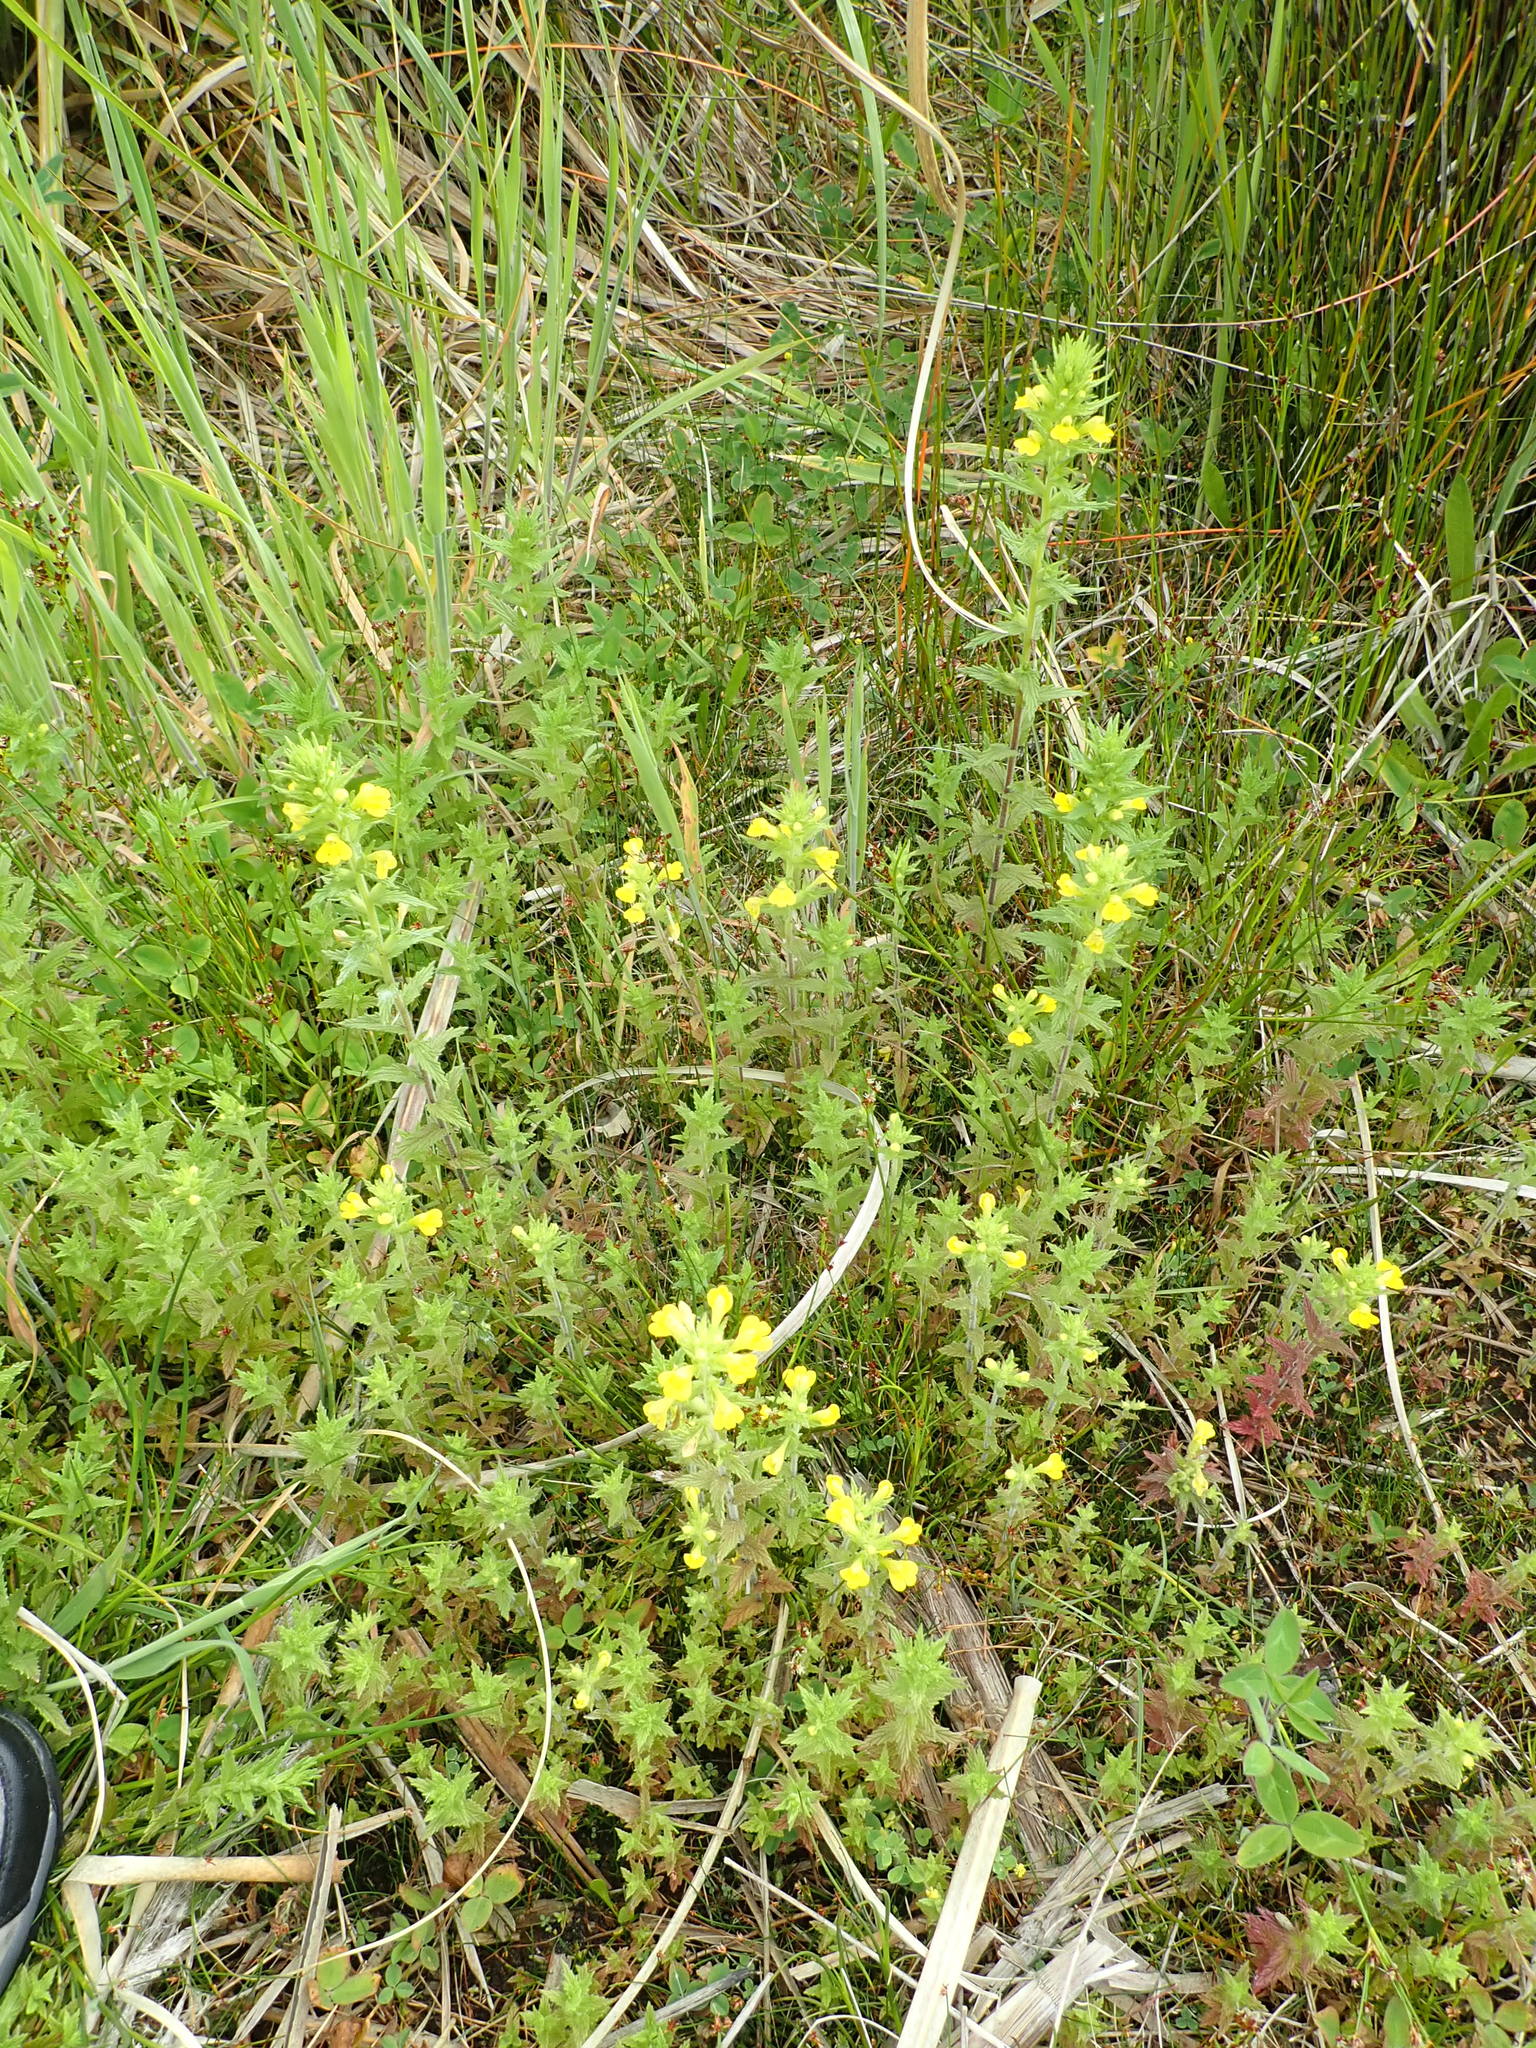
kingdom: Plantae
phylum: Tracheophyta
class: Magnoliopsida
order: Lamiales
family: Orobanchaceae
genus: Bellardia
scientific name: Bellardia viscosa
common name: Sticky parentucellia
